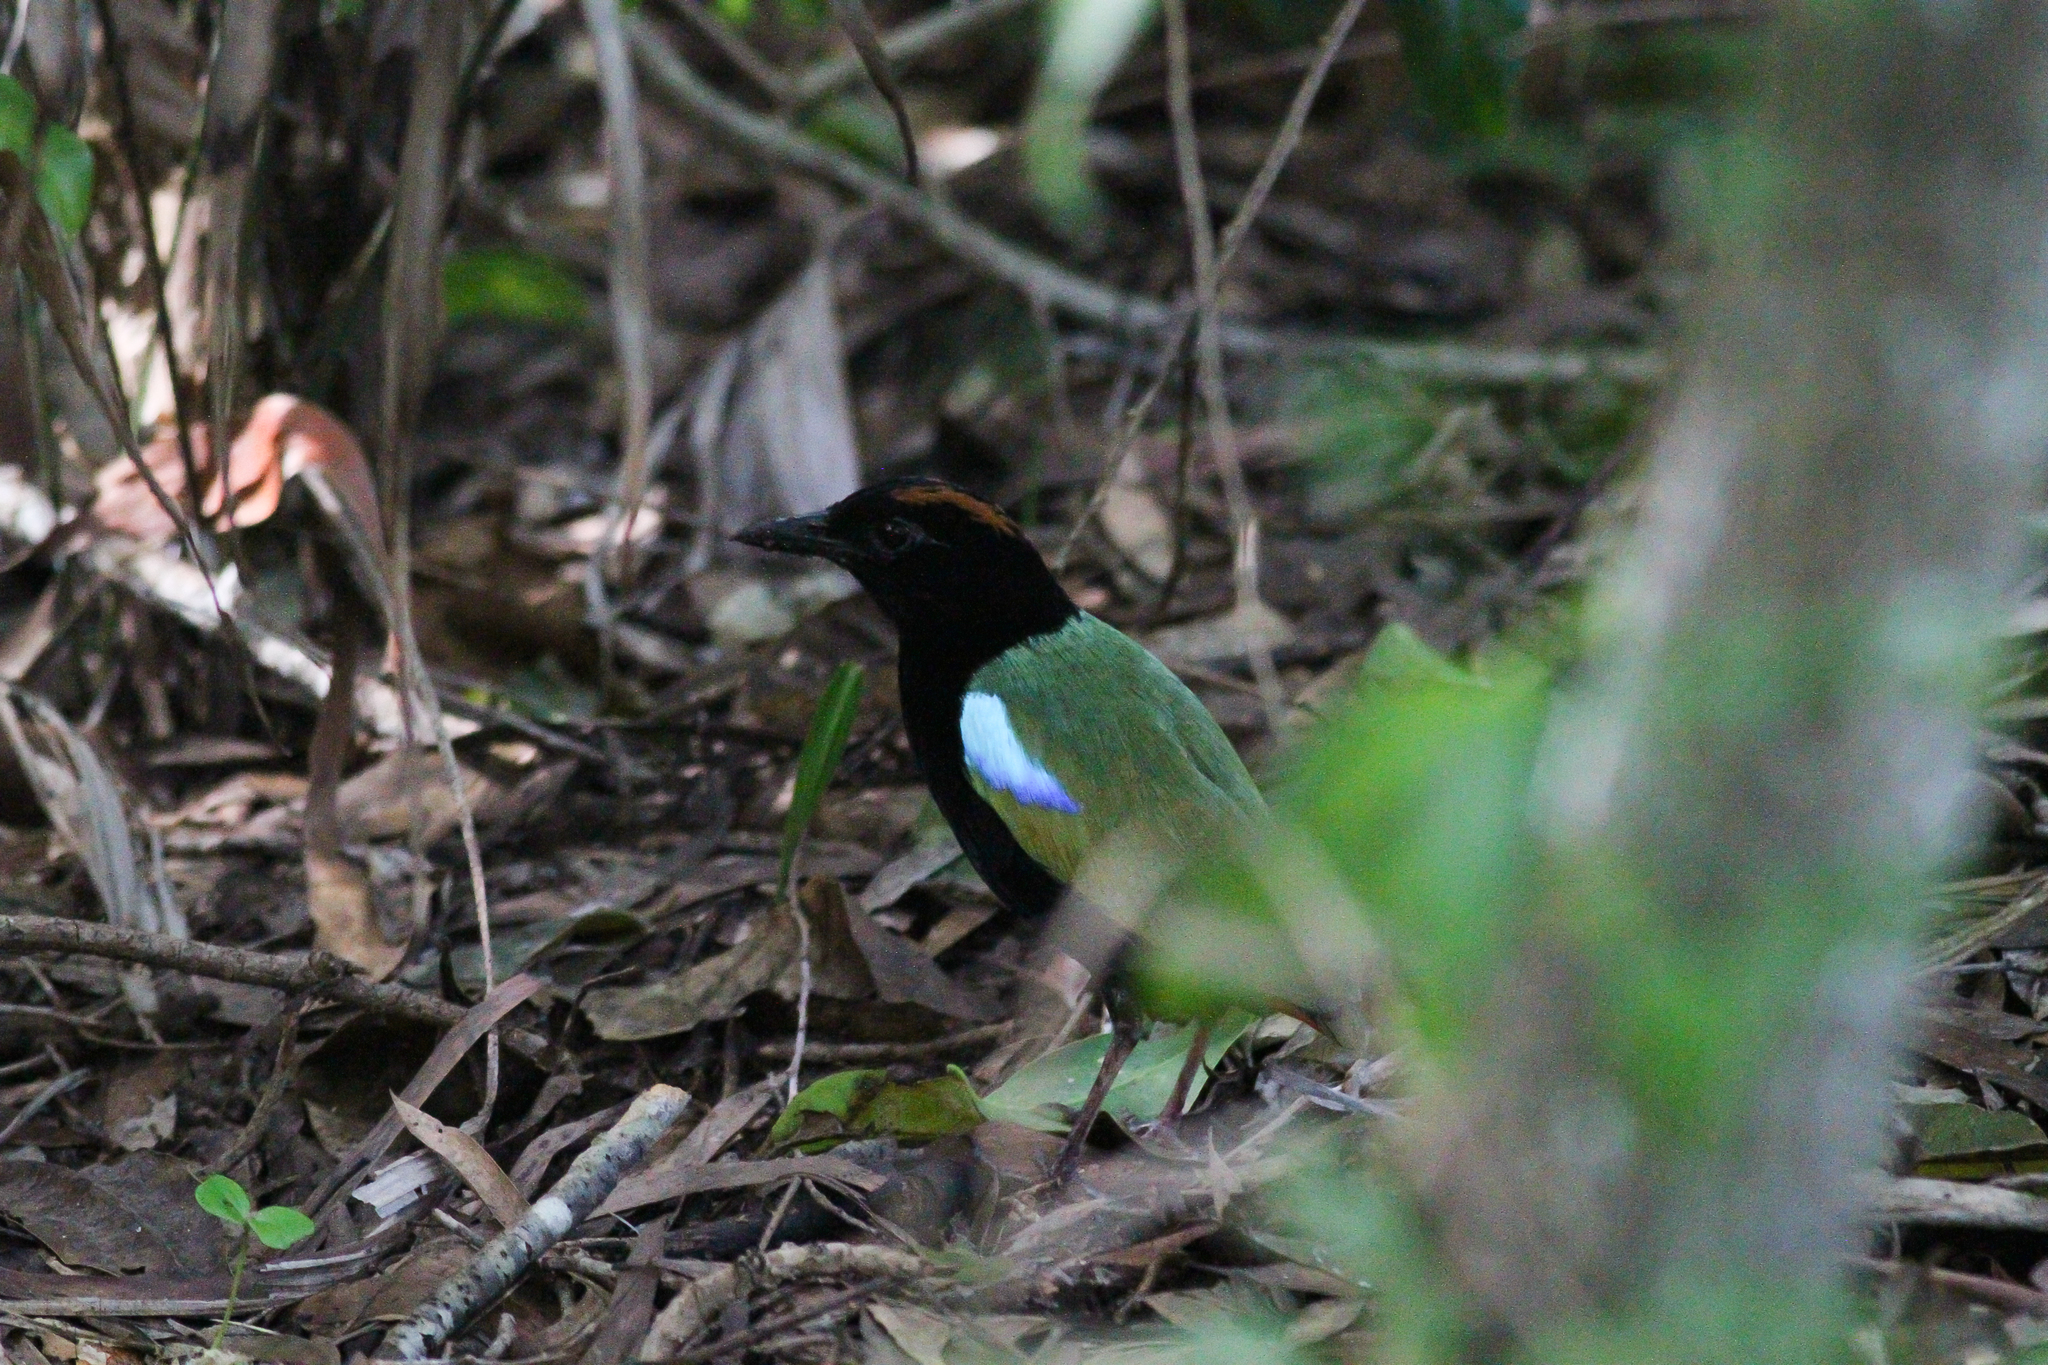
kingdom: Animalia
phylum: Chordata
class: Aves
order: Passeriformes
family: Pittidae
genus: Pitta
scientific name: Pitta iris
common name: Rainbow pitta
